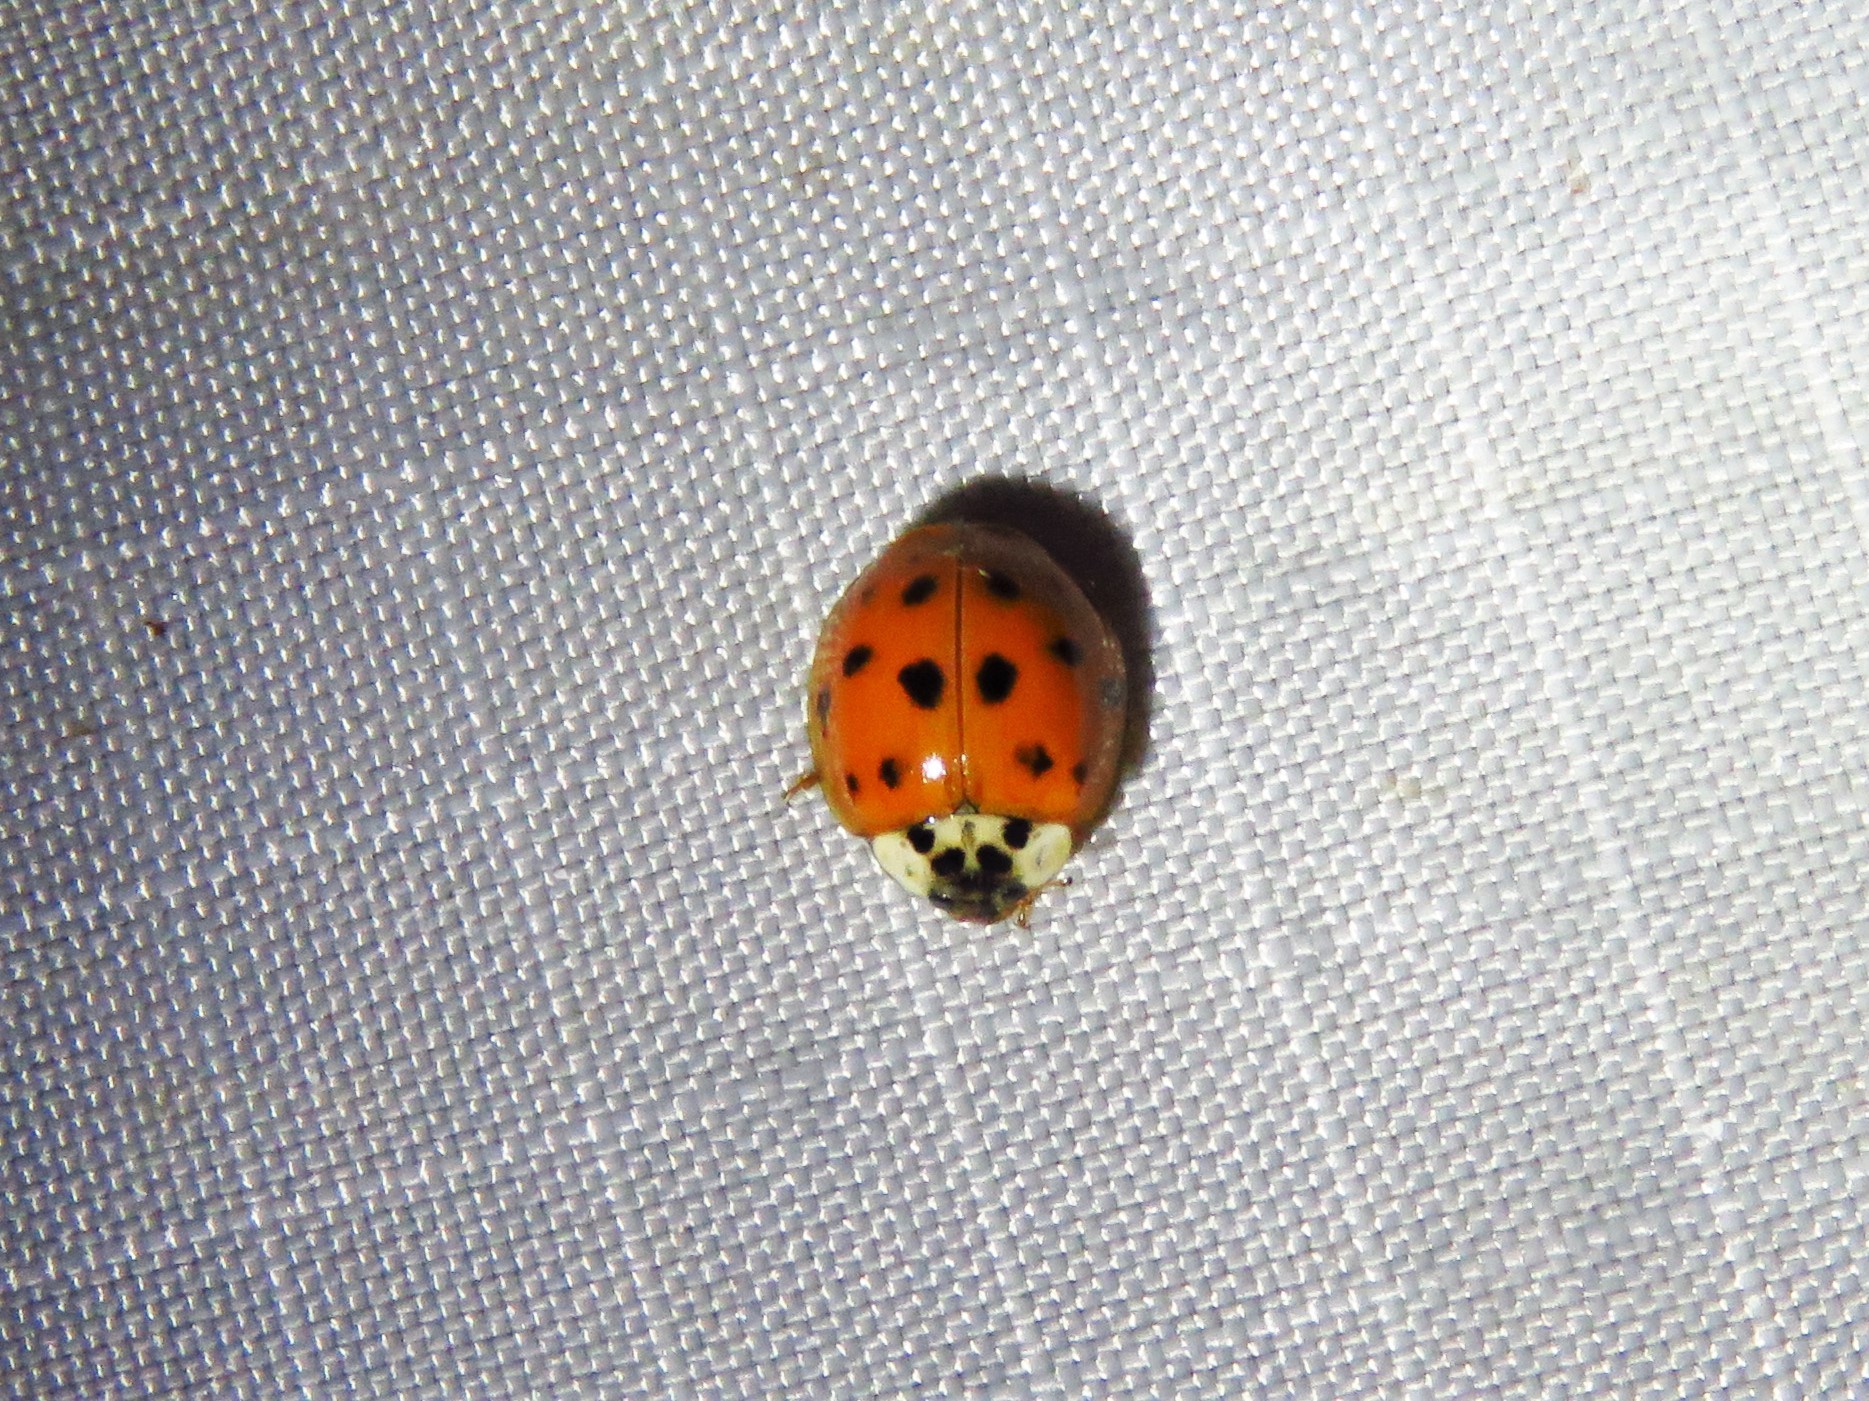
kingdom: Animalia
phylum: Arthropoda
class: Insecta
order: Coleoptera
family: Coccinellidae
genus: Harmonia
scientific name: Harmonia axyridis
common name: Harlequin ladybird
